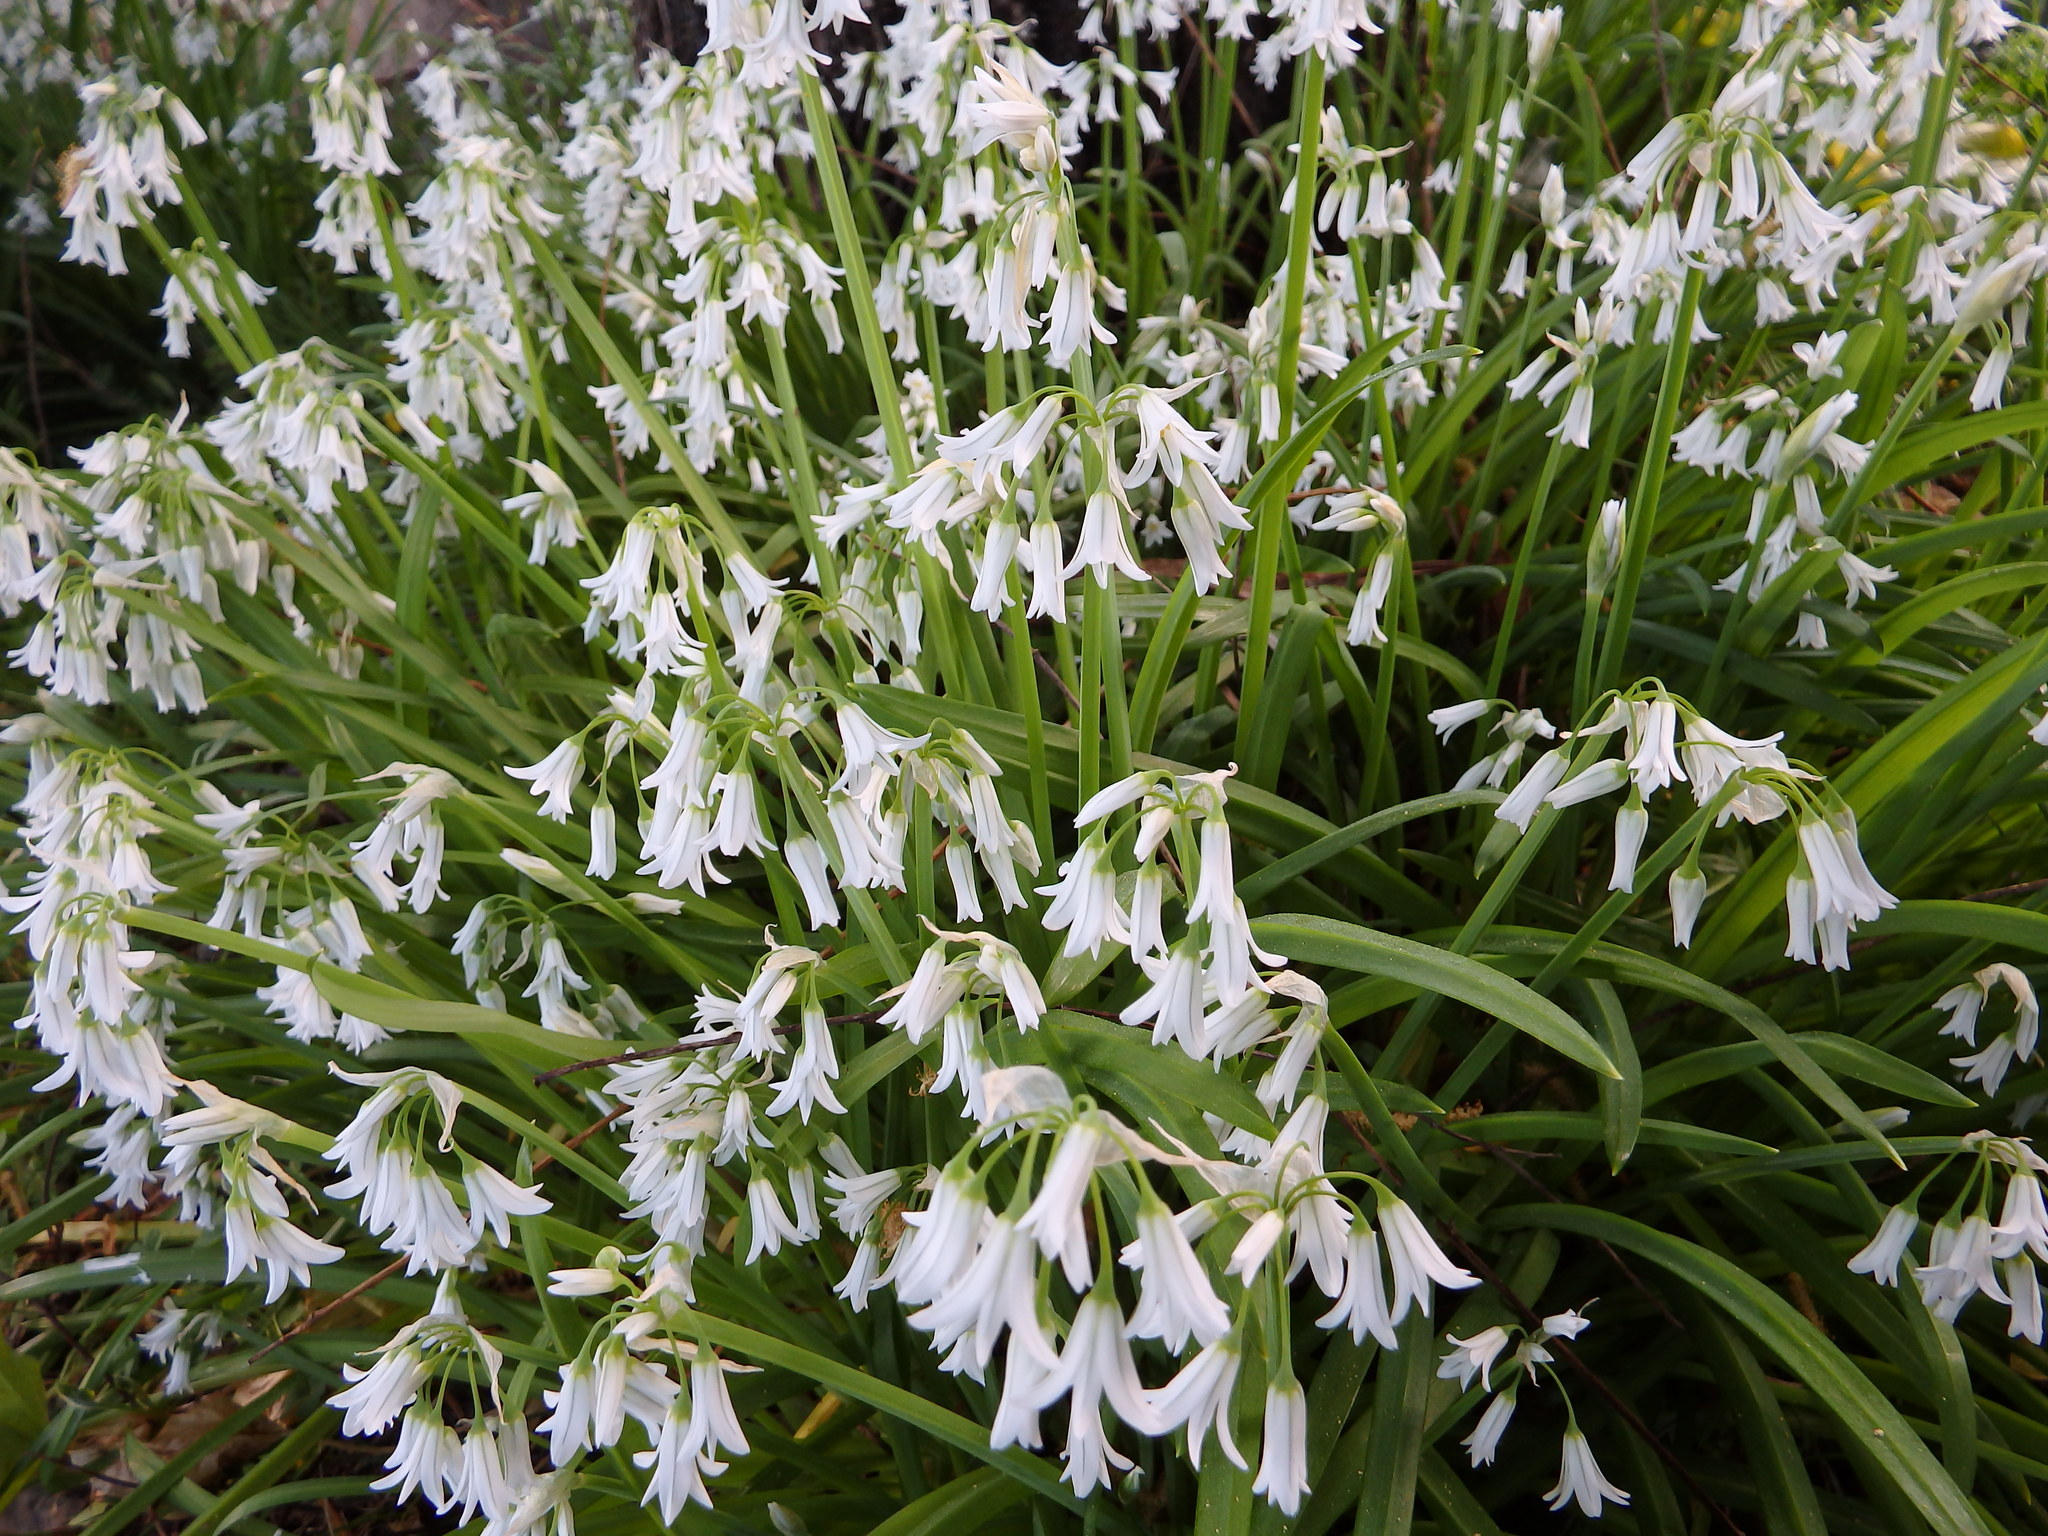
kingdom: Plantae
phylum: Tracheophyta
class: Liliopsida
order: Asparagales
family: Amaryllidaceae
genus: Allium
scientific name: Allium triquetrum
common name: Three-cornered garlic
